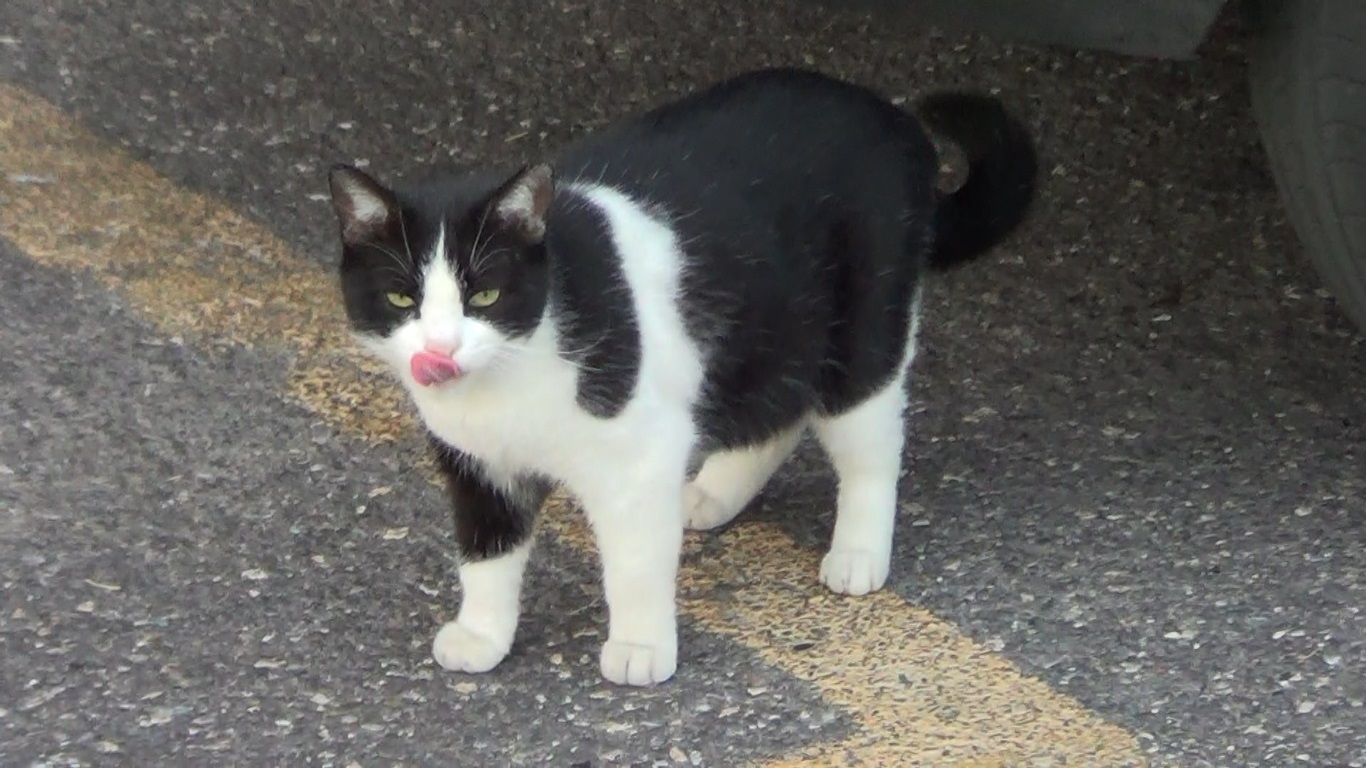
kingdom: Animalia
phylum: Chordata
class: Mammalia
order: Carnivora
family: Felidae
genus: Felis
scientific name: Felis catus
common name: Domestic cat
